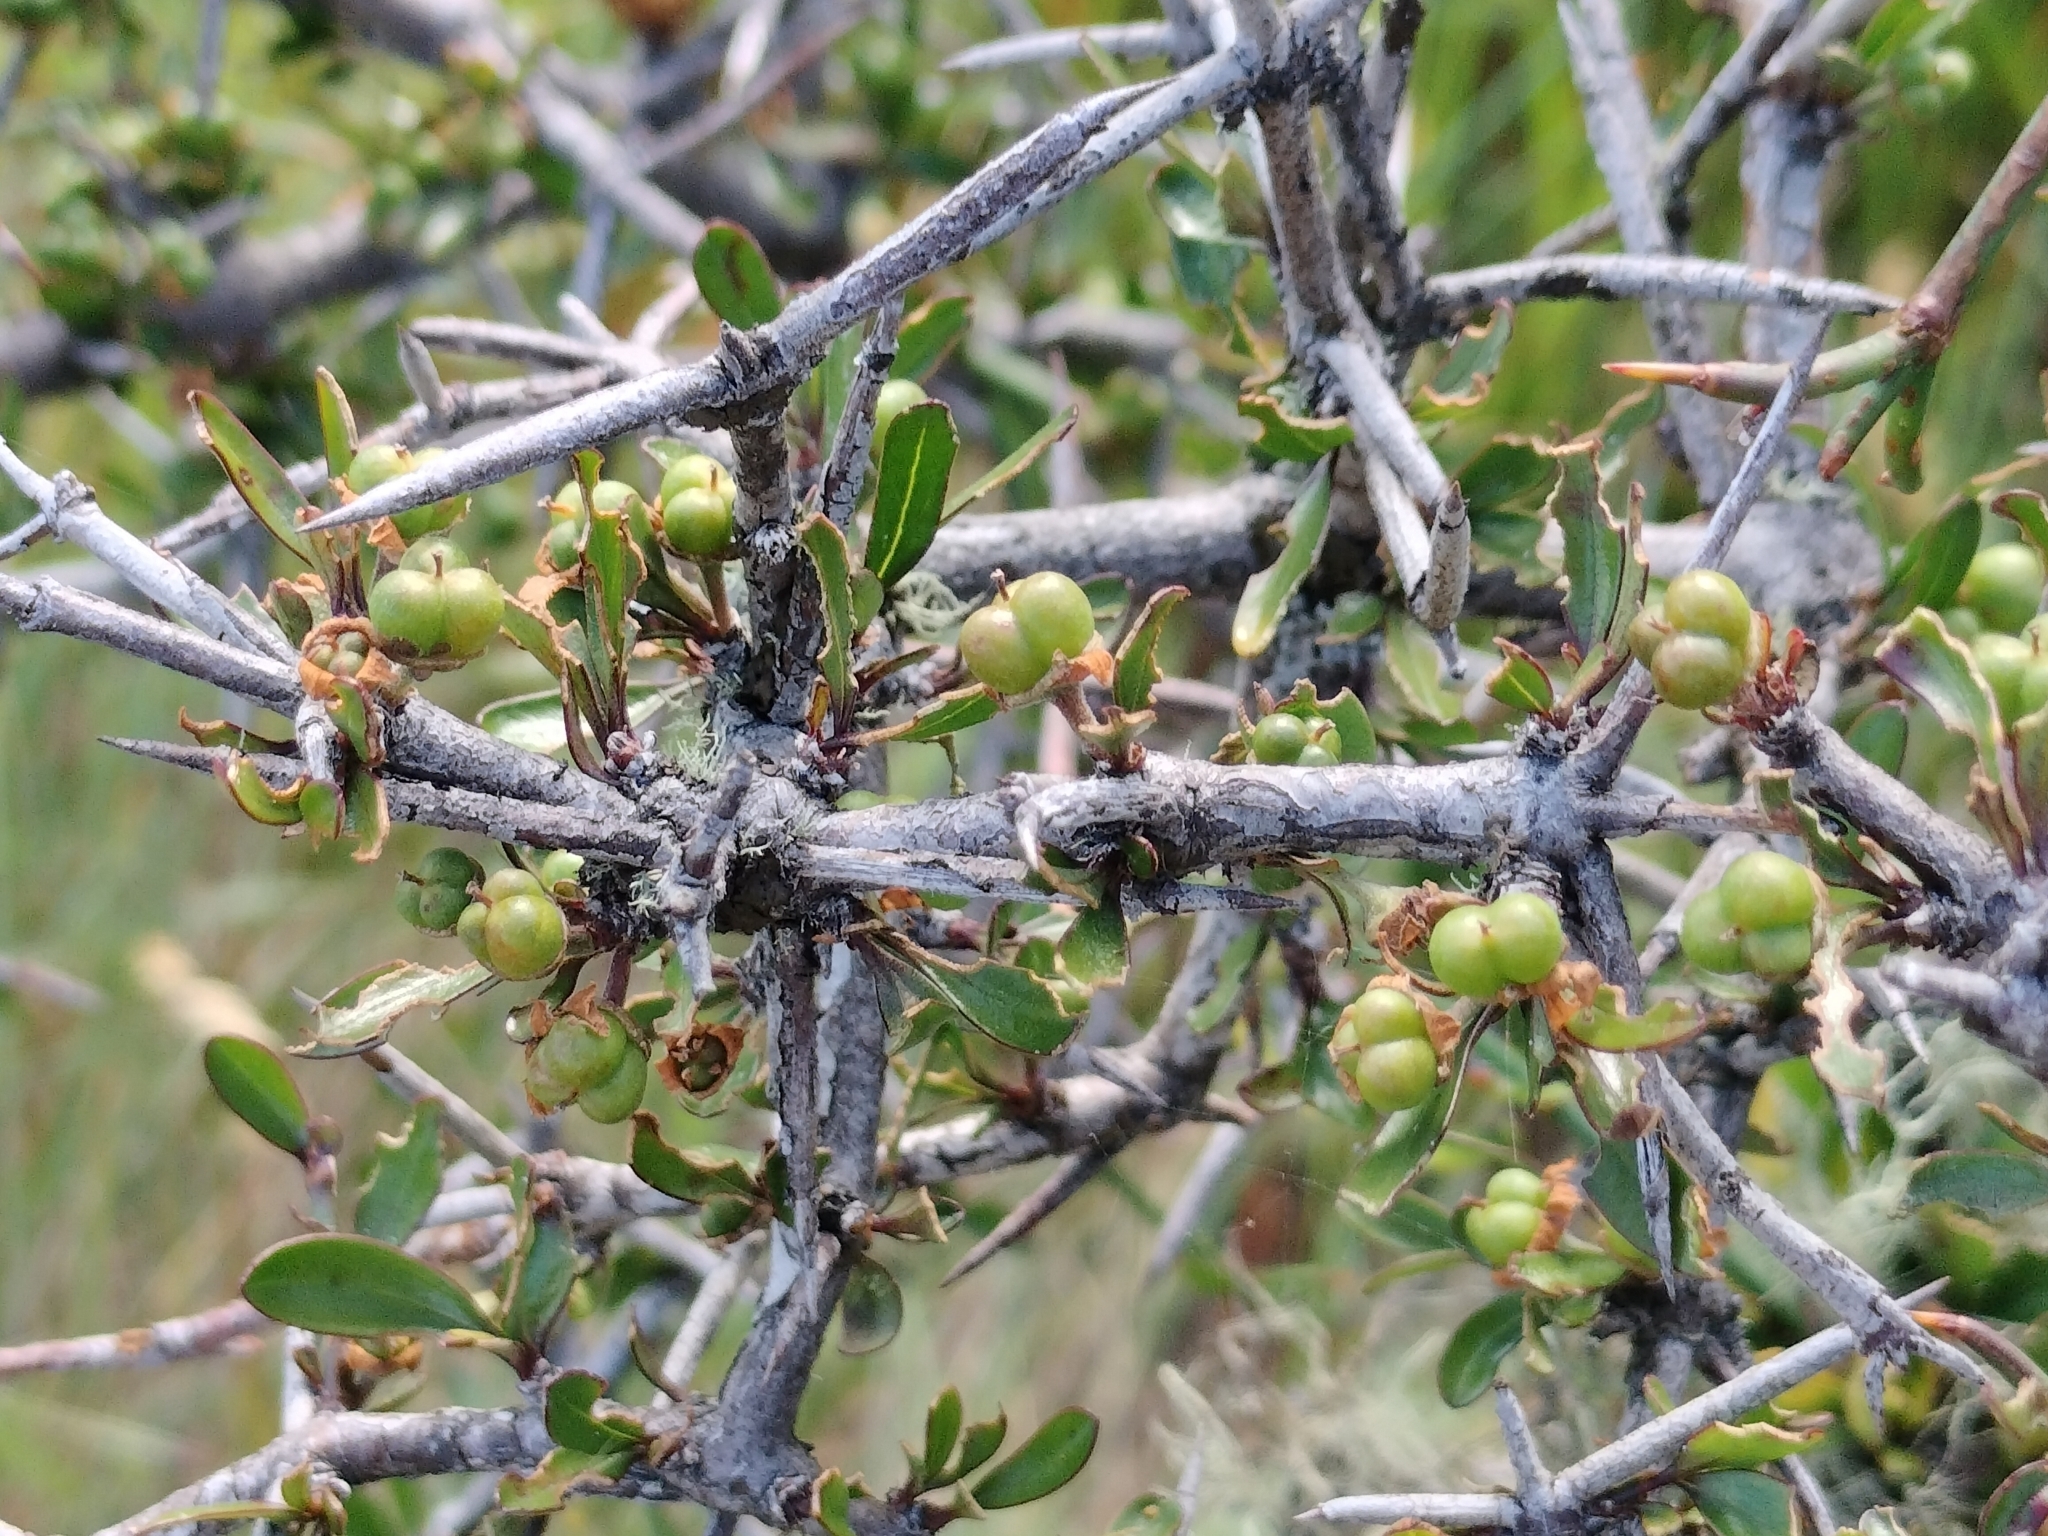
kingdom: Plantae
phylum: Tracheophyta
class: Magnoliopsida
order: Rosales
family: Rhamnaceae
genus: Discaria
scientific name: Discaria toumatou
